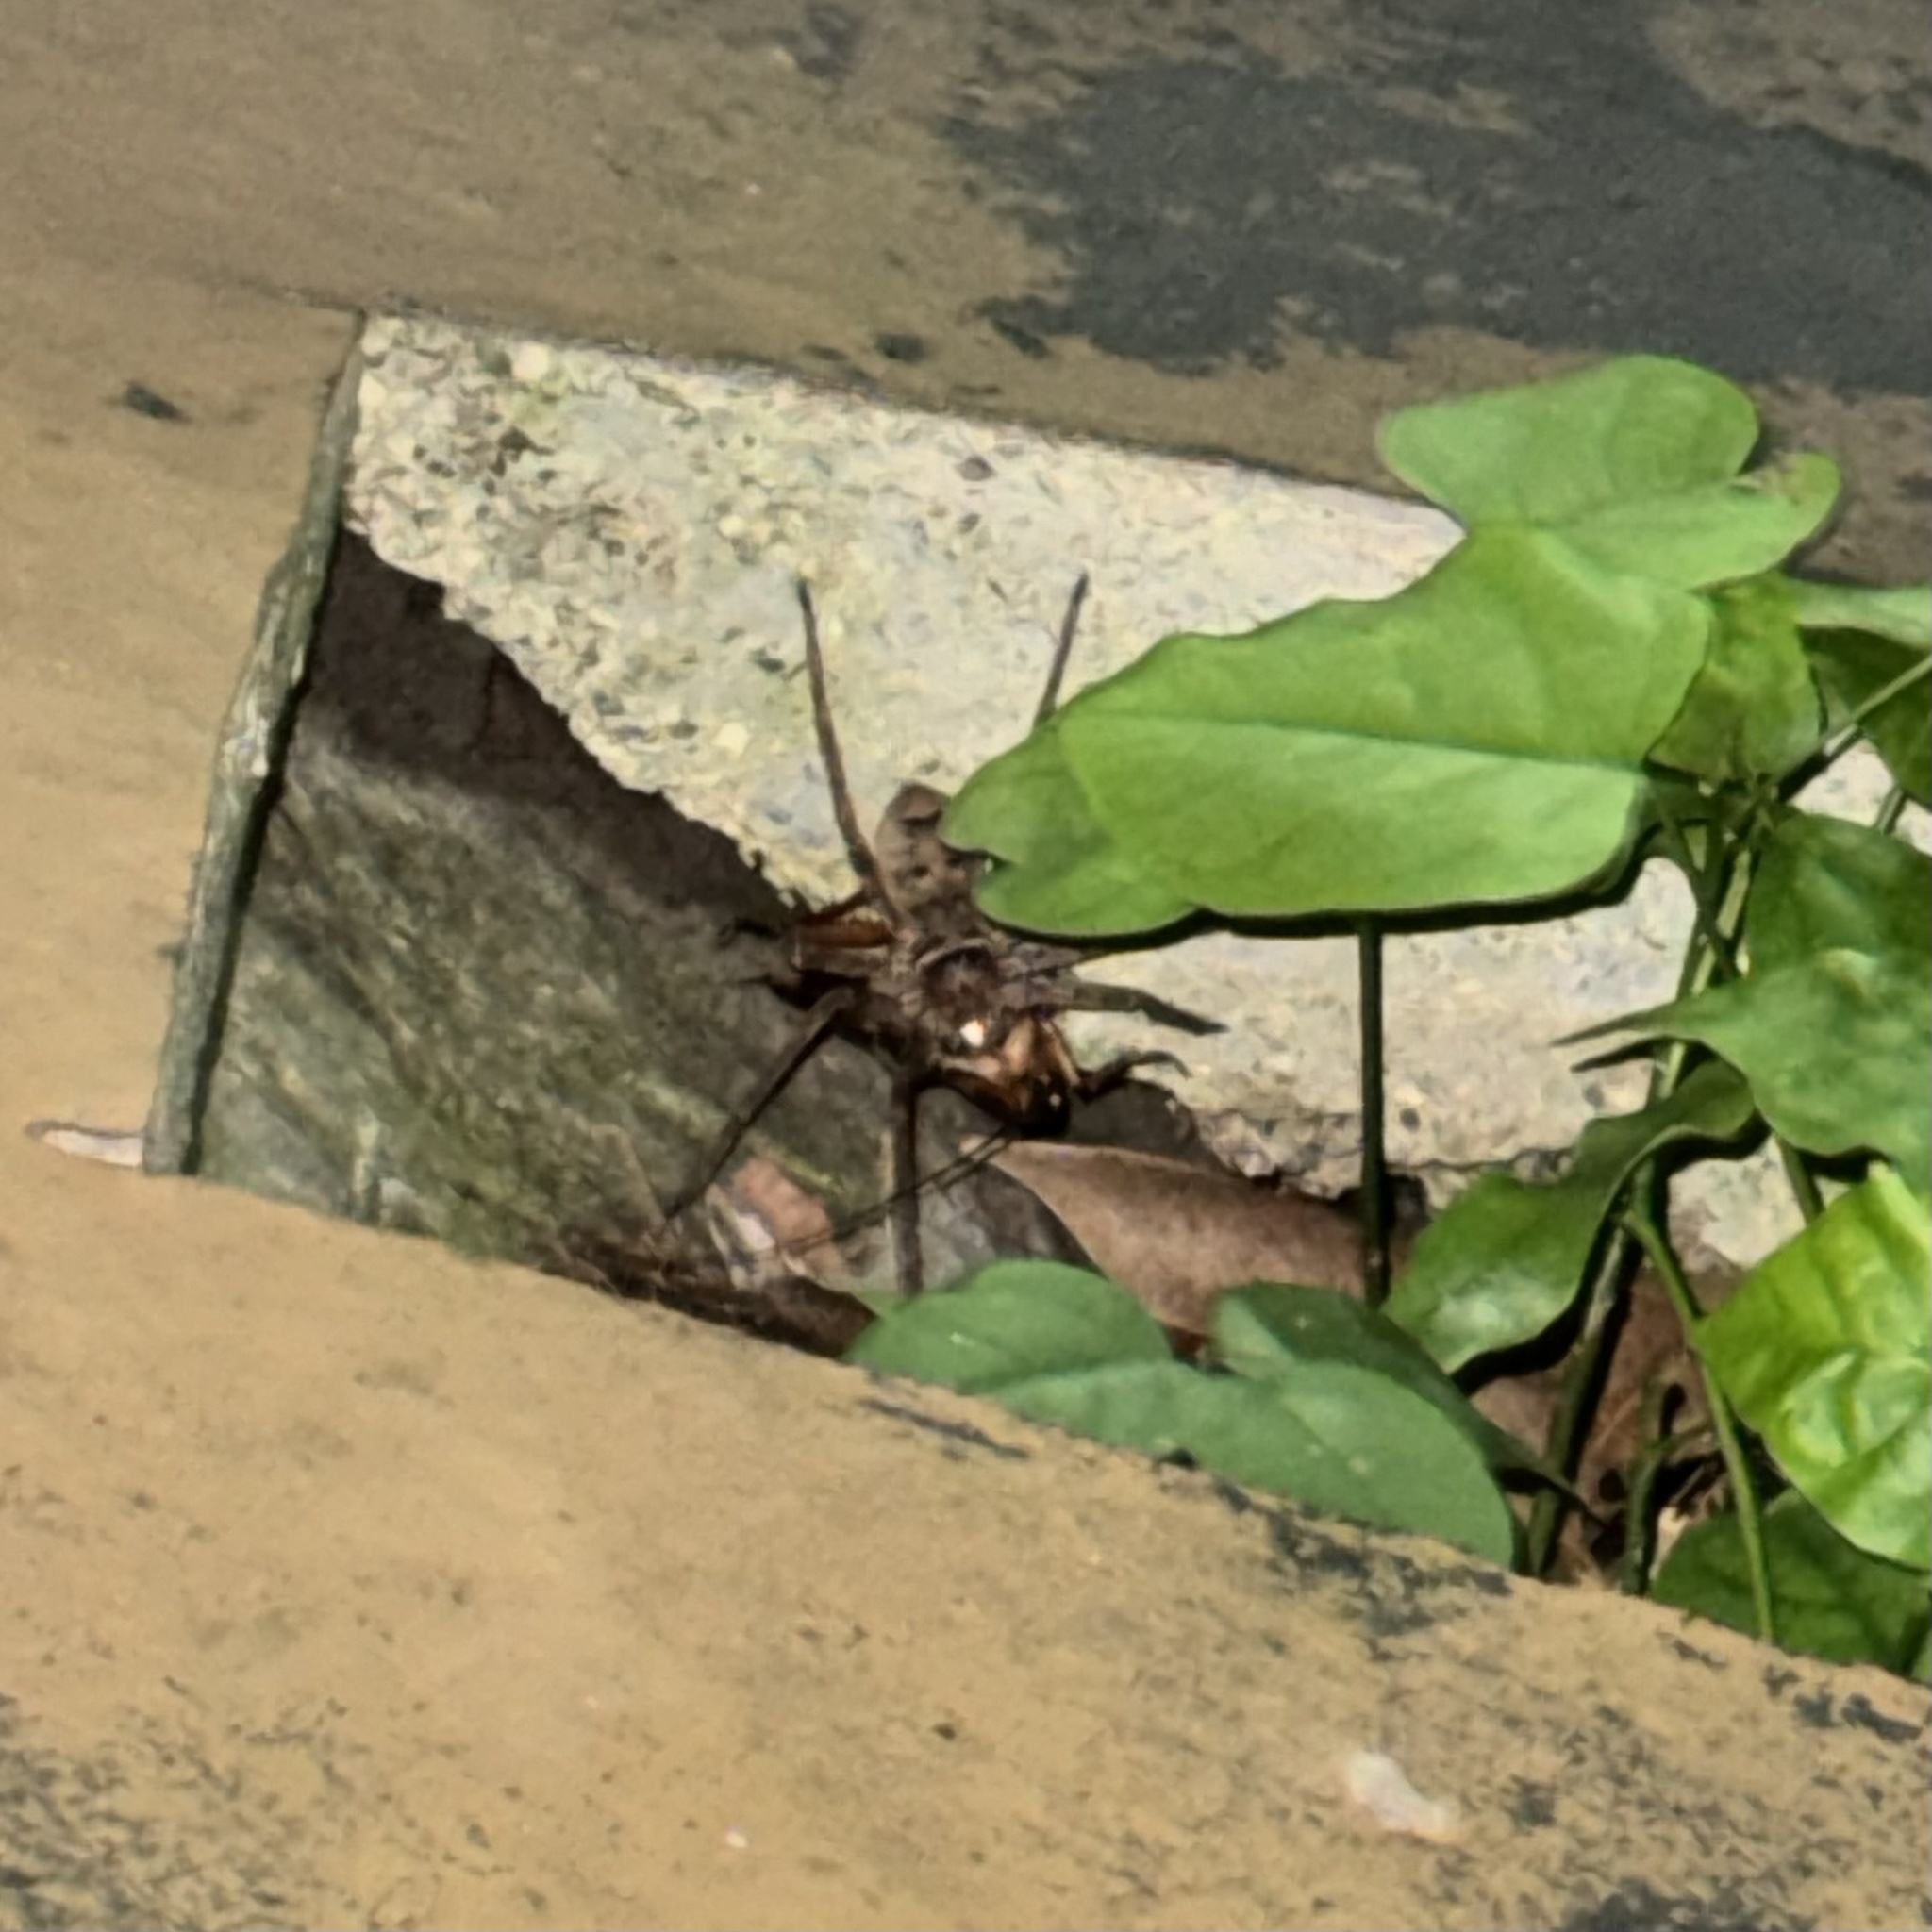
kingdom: Animalia
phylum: Arthropoda
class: Arachnida
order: Araneae
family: Sparassidae
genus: Heteropoda
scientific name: Heteropoda jugulans
